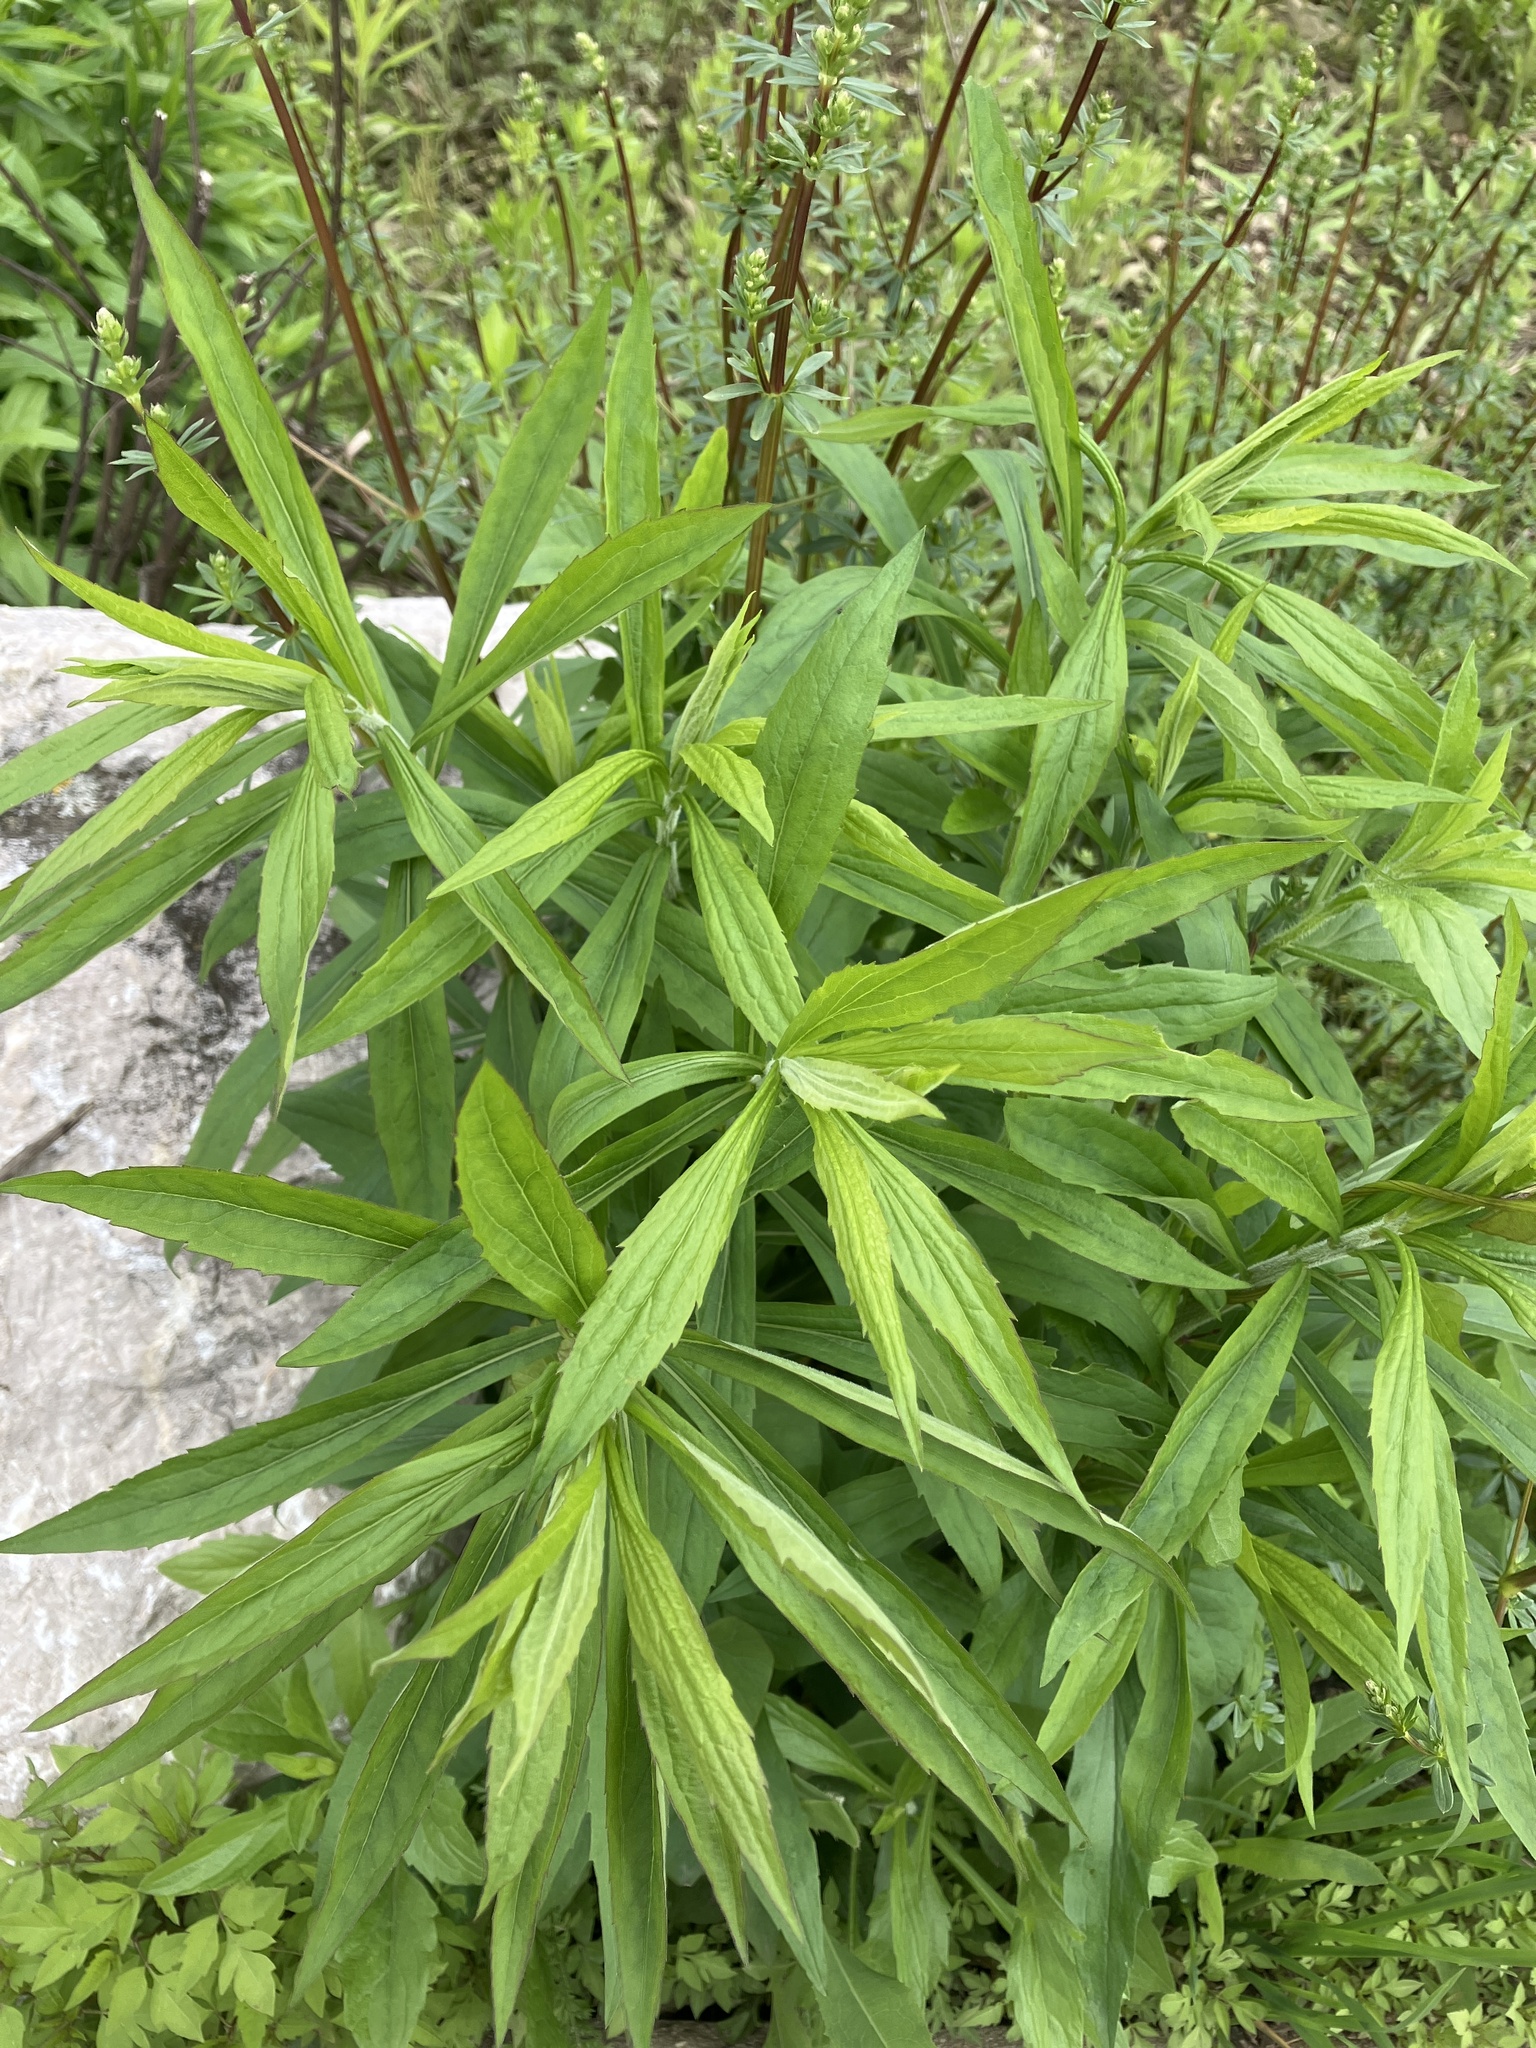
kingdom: Plantae
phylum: Tracheophyta
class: Magnoliopsida
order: Asterales
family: Asteraceae
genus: Solidago
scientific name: Solidago canadensis
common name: Canada goldenrod
